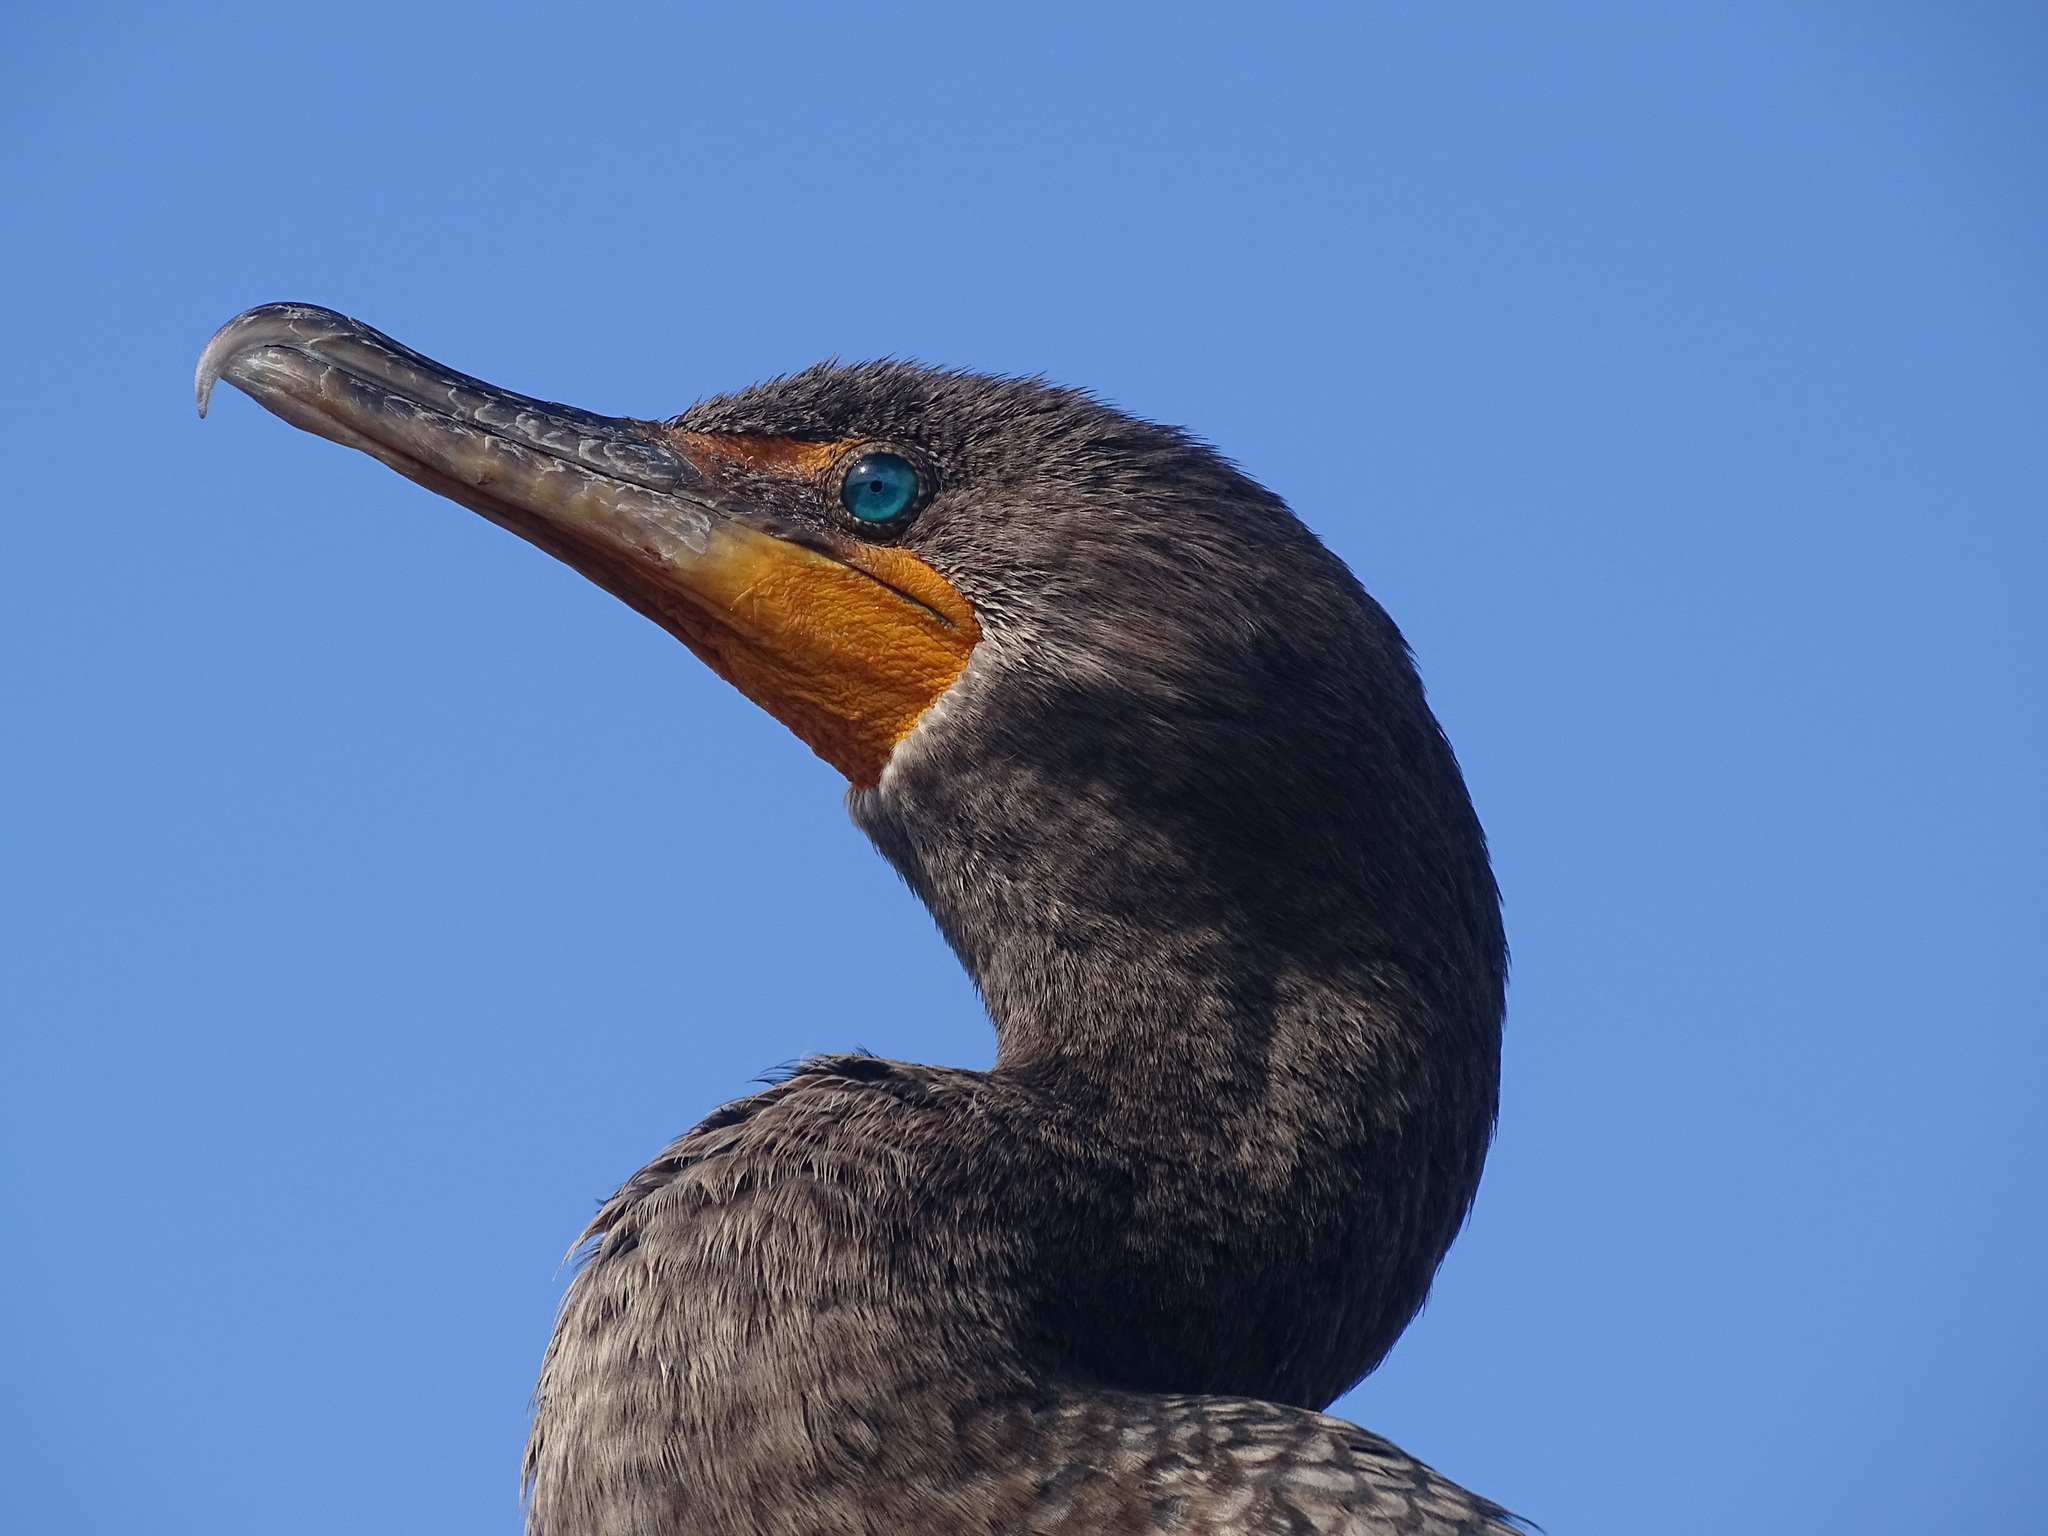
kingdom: Animalia
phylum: Chordata
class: Aves
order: Suliformes
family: Phalacrocoracidae
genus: Phalacrocorax
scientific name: Phalacrocorax auritus
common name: Double-crested cormorant
